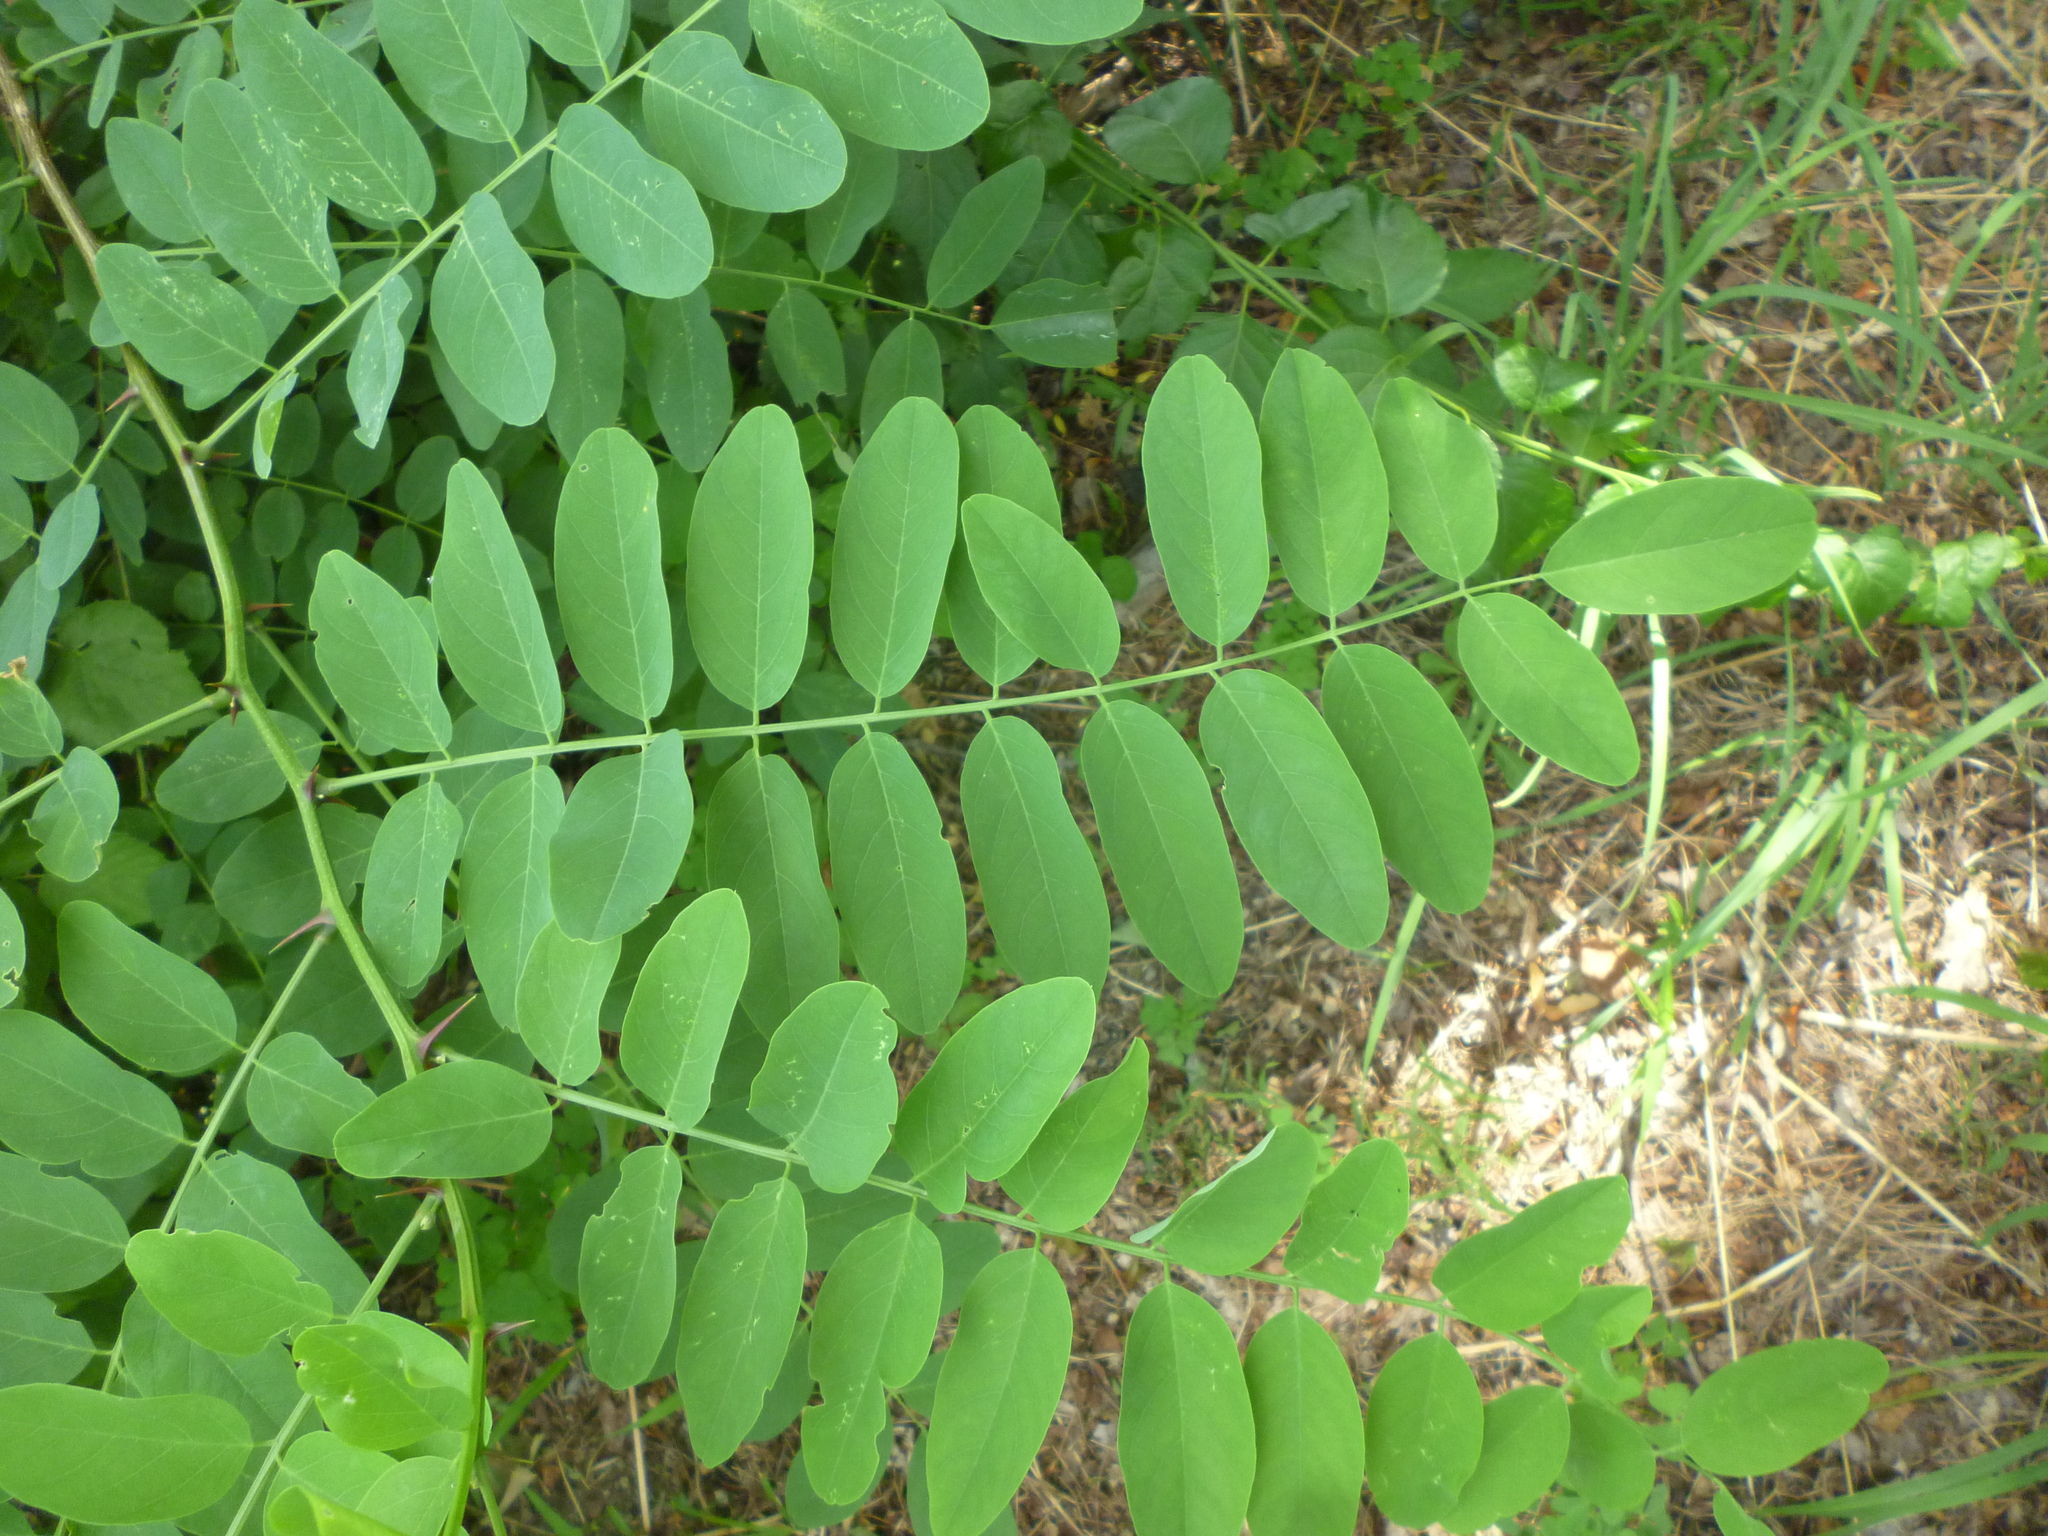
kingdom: Plantae
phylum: Tracheophyta
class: Magnoliopsida
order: Fabales
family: Fabaceae
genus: Robinia
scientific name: Robinia pseudoacacia
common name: Black locust
